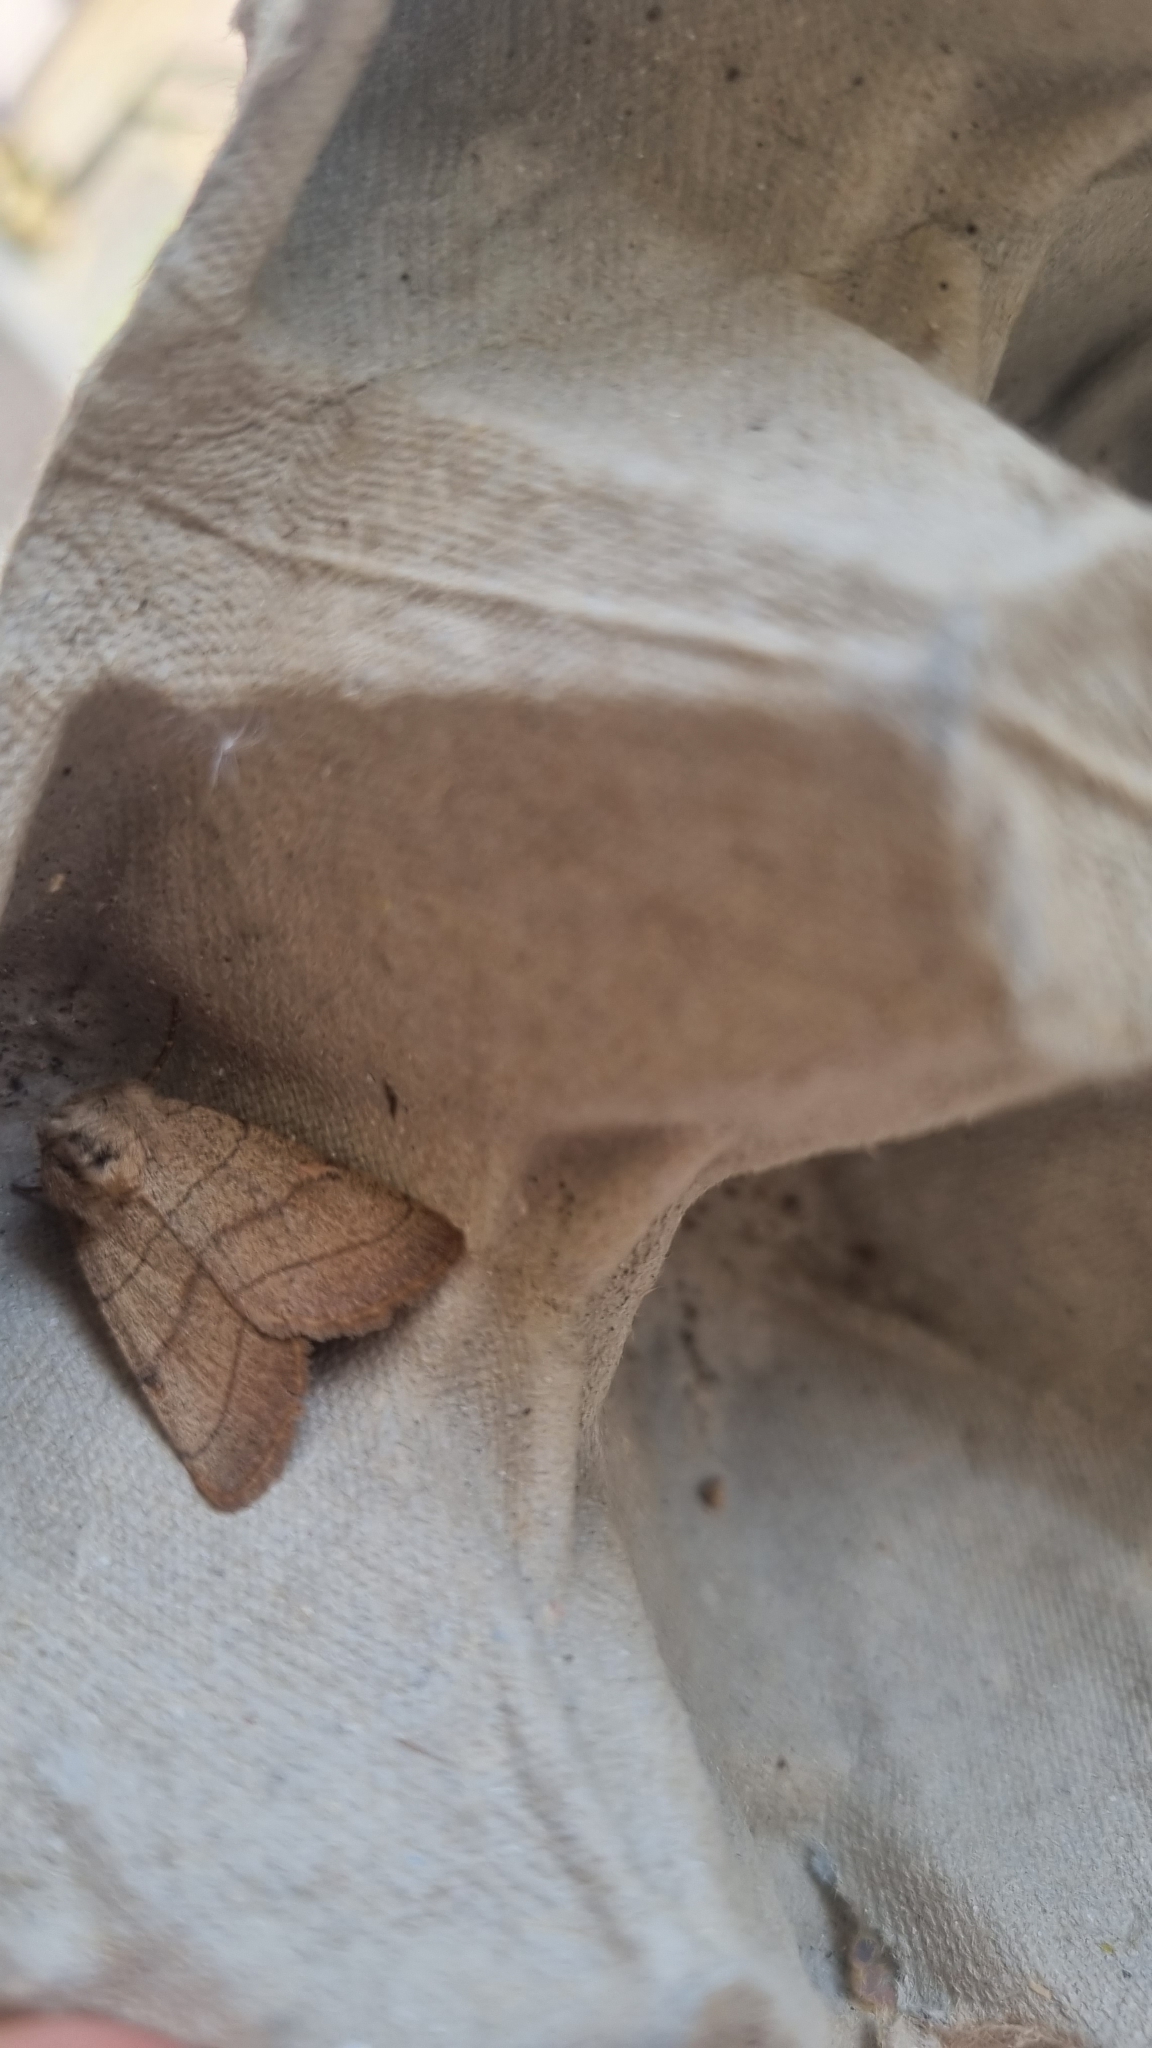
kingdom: Animalia
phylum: Arthropoda
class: Insecta
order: Lepidoptera
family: Noctuidae
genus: Charanyca
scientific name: Charanyca trigrammica
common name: Treble lines
